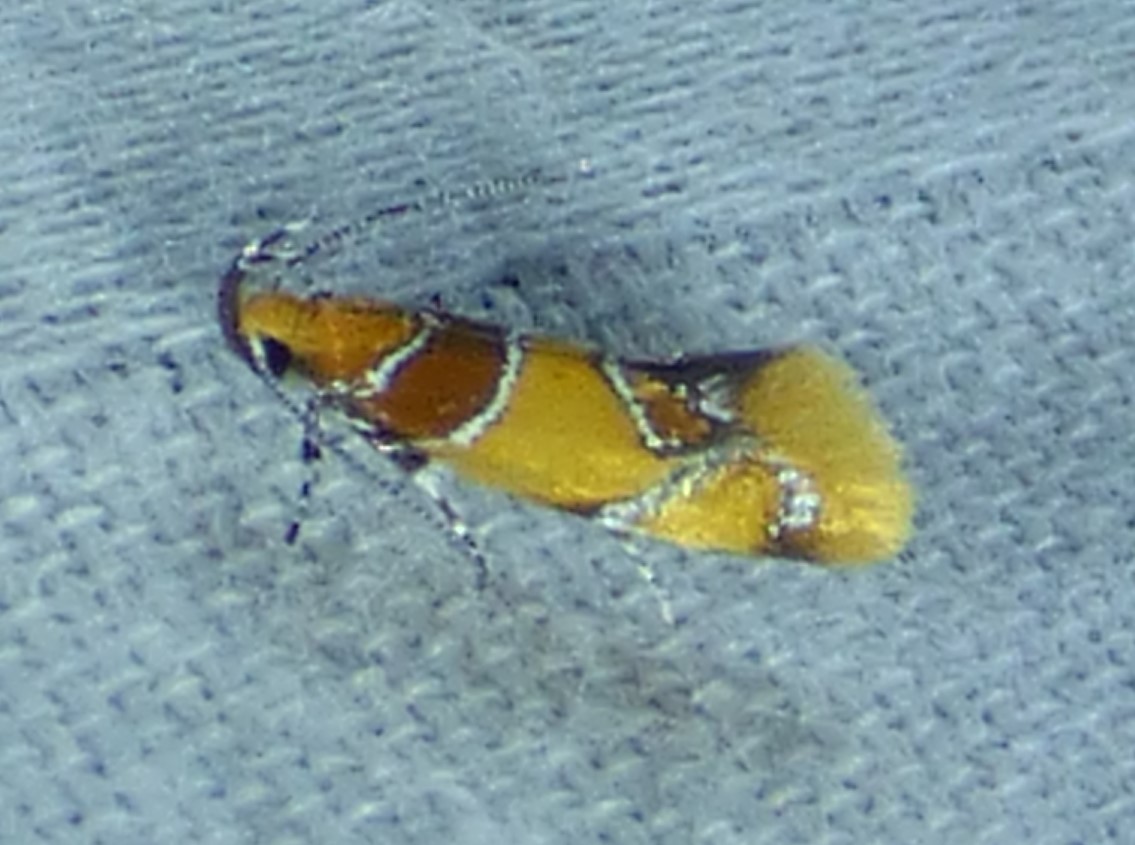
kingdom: Animalia
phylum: Arthropoda
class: Insecta
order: Lepidoptera
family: Oecophoridae
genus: Callima
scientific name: Callima argenticinctella
